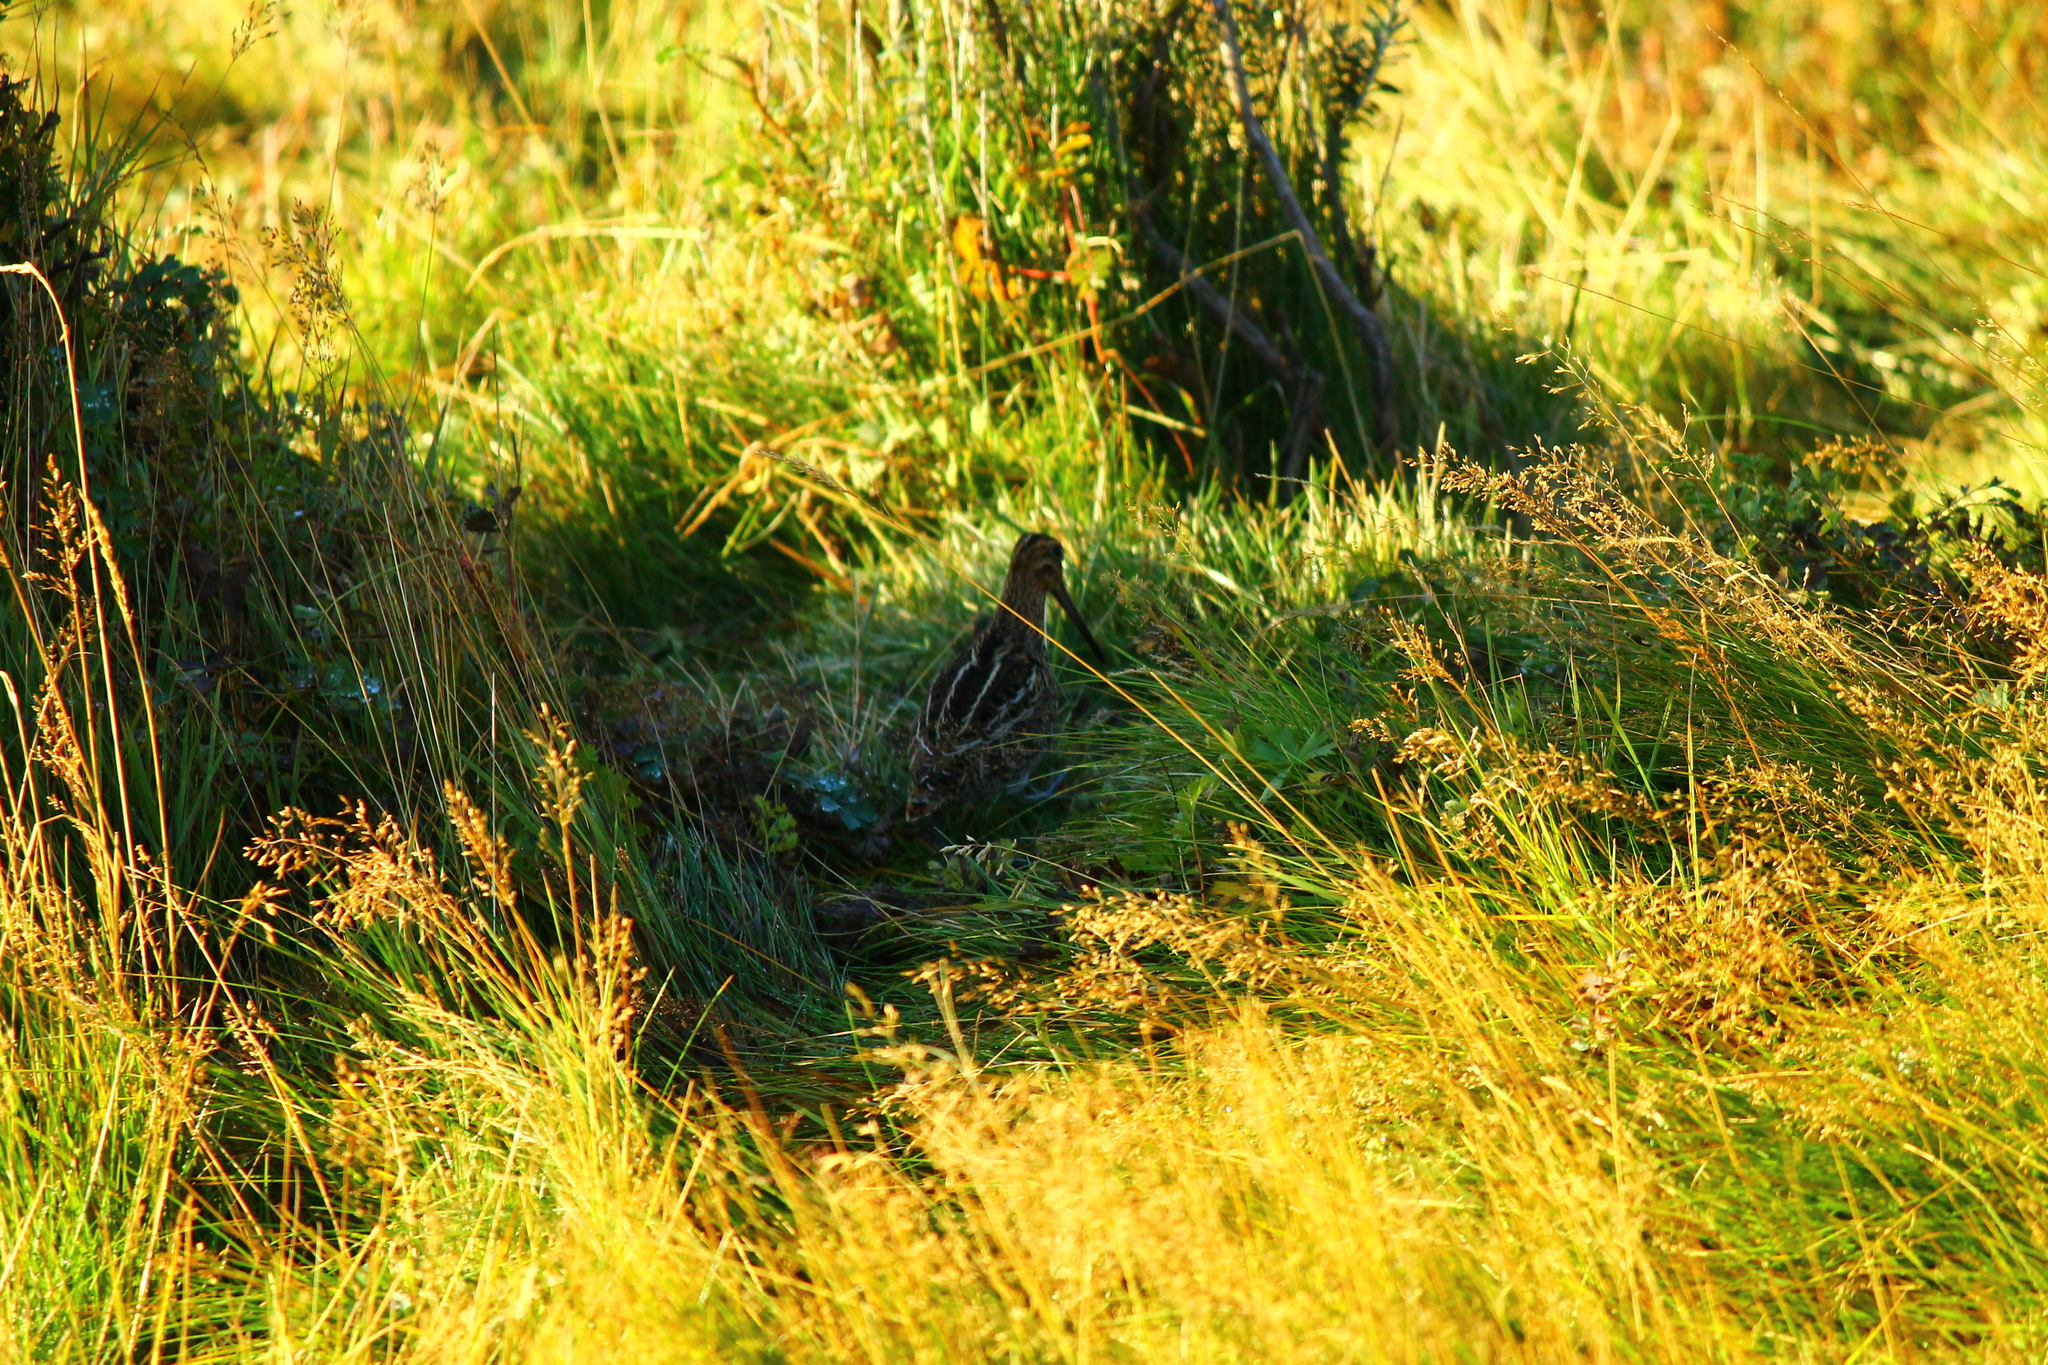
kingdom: Animalia
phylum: Chordata
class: Aves
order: Charadriiformes
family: Scolopacidae
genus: Gallinago
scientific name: Gallinago magellanica
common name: Magellanic snipe
